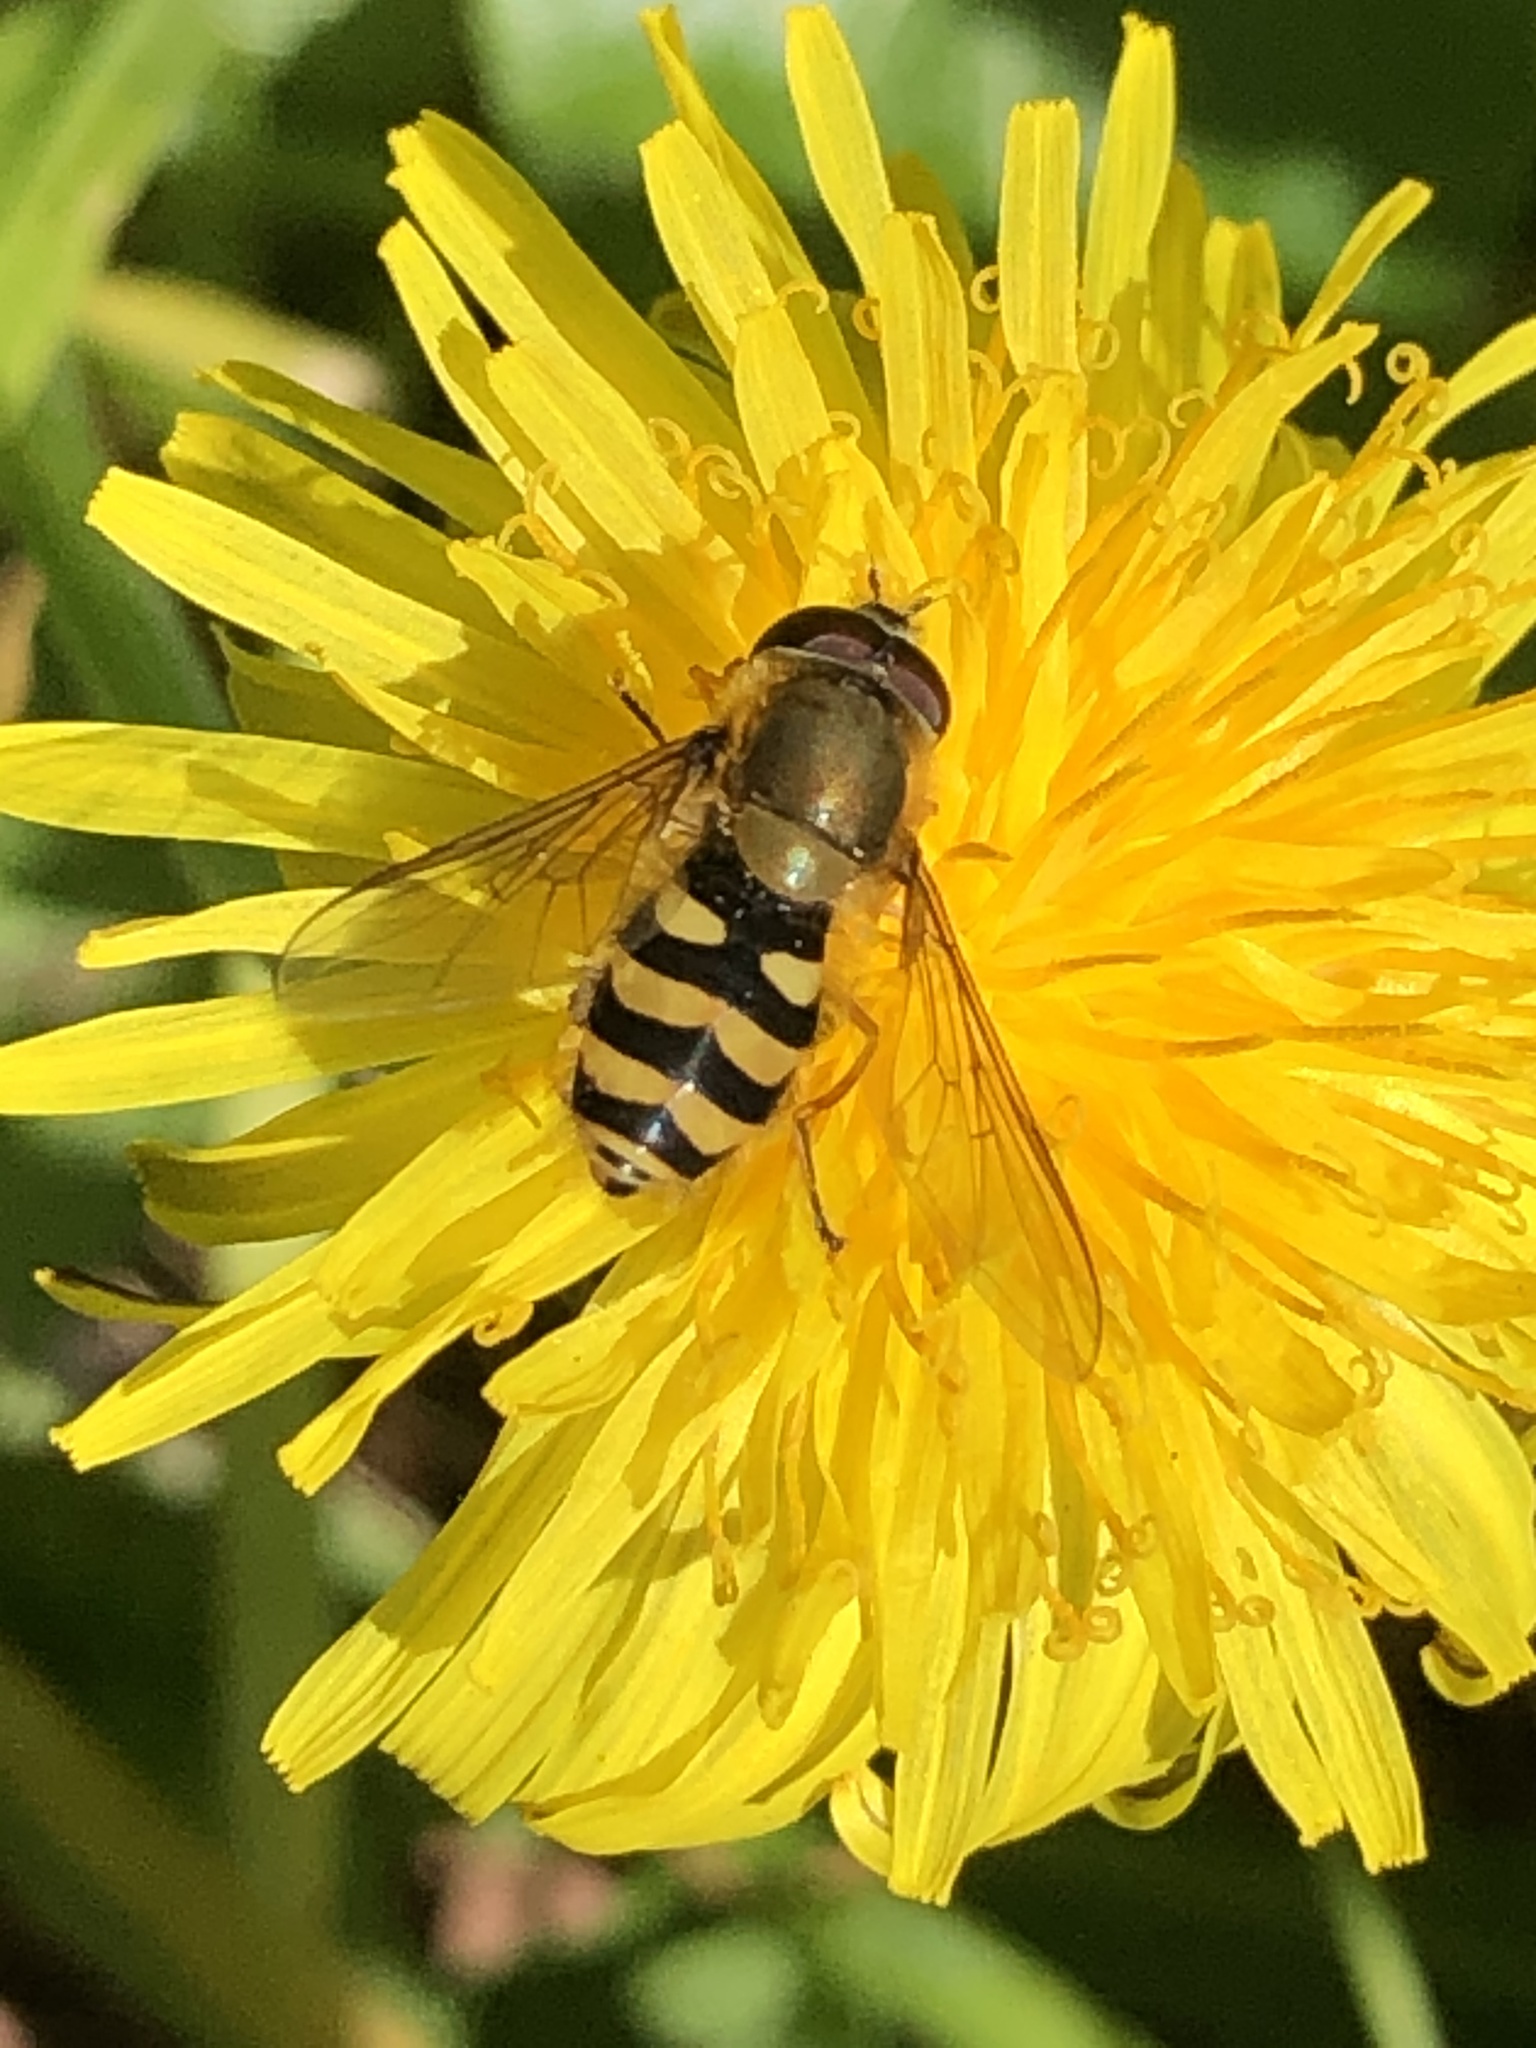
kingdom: Animalia
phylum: Arthropoda
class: Insecta
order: Diptera
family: Syrphidae
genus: Syrphus
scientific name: Syrphus
